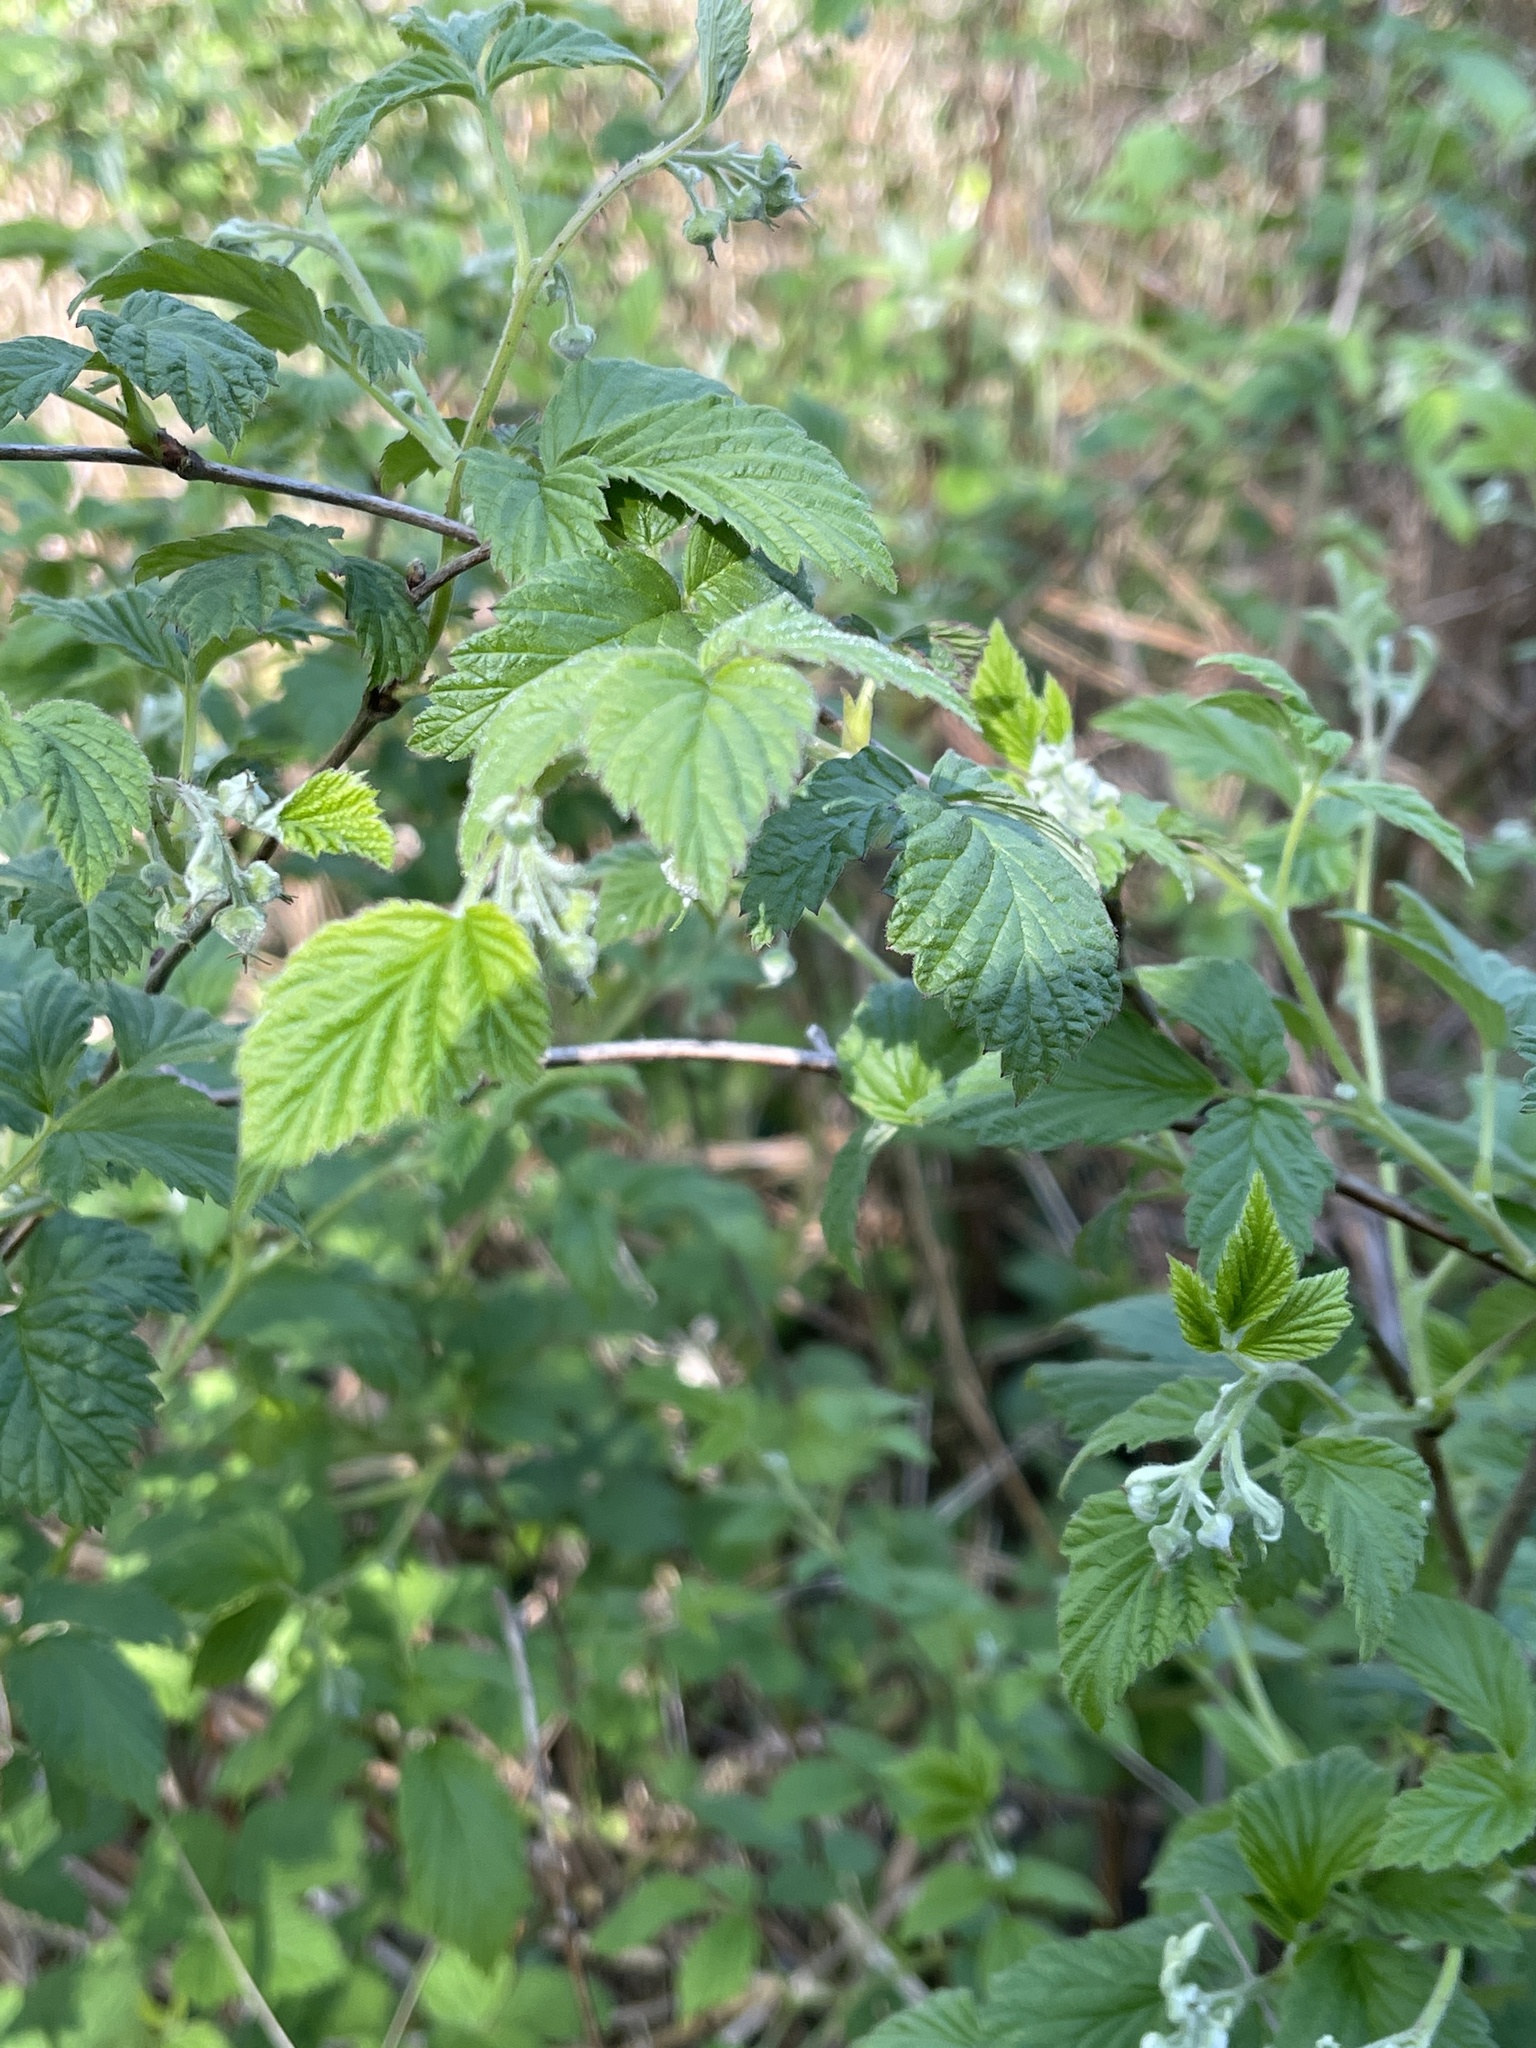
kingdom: Plantae
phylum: Tracheophyta
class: Magnoliopsida
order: Rosales
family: Rosaceae
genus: Rubus
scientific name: Rubus idaeus
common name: Raspberry
